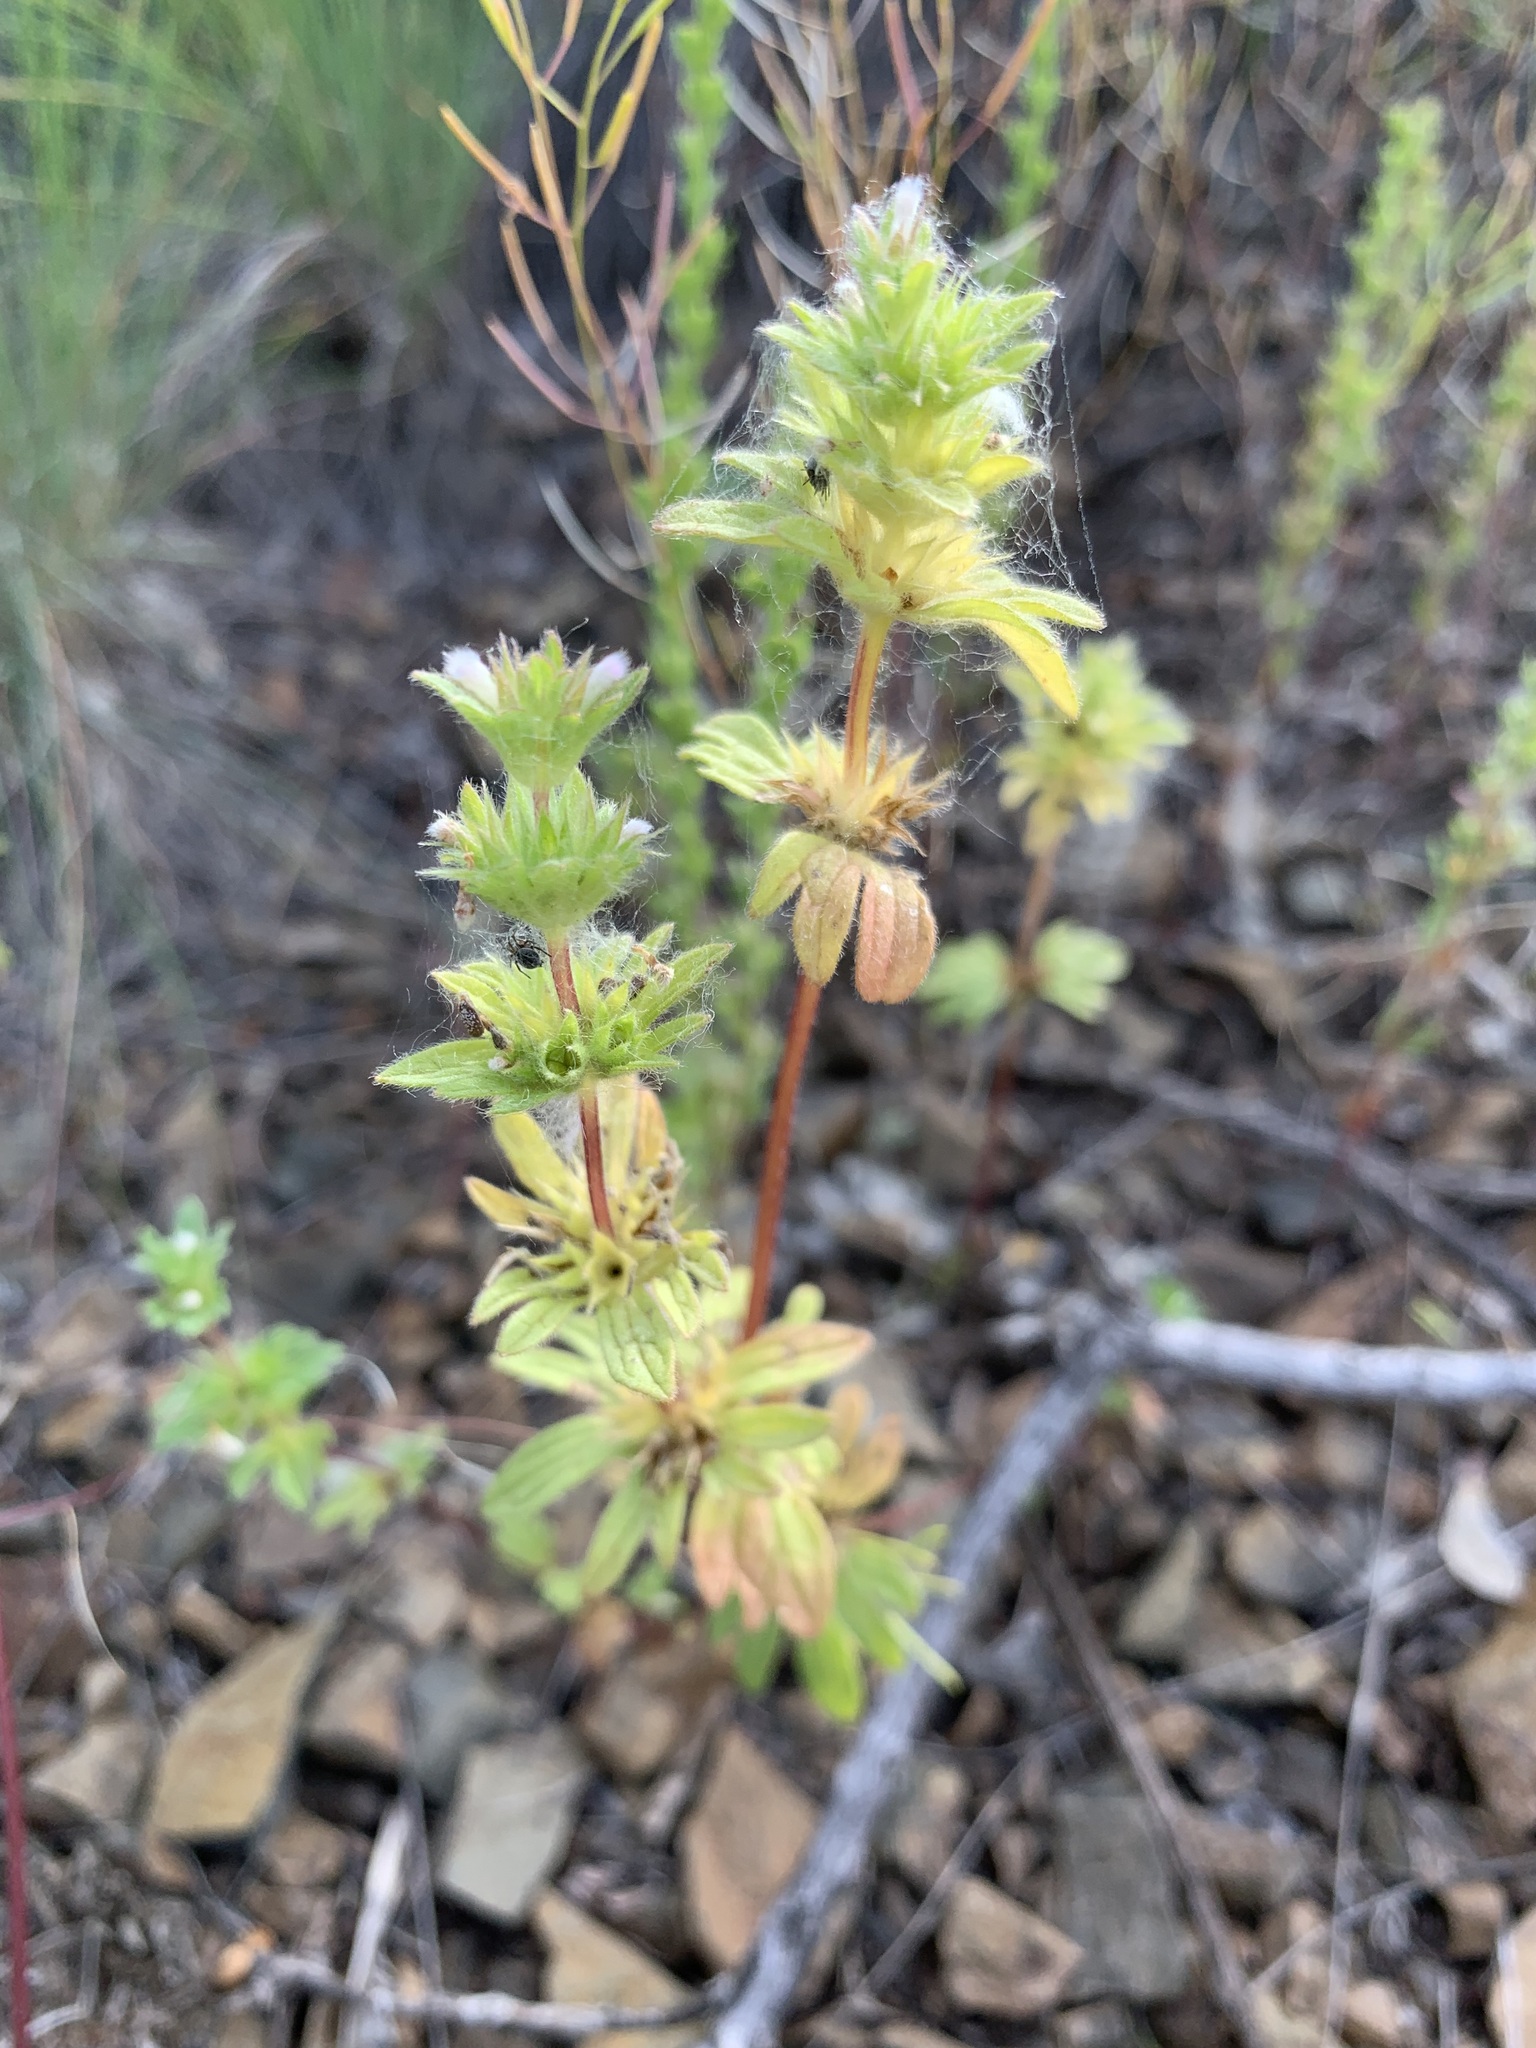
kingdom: Plantae
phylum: Tracheophyta
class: Magnoliopsida
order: Lamiales
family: Lamiaceae
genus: Lamium
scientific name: Lamium amplexicaule
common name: Henbit dead-nettle
